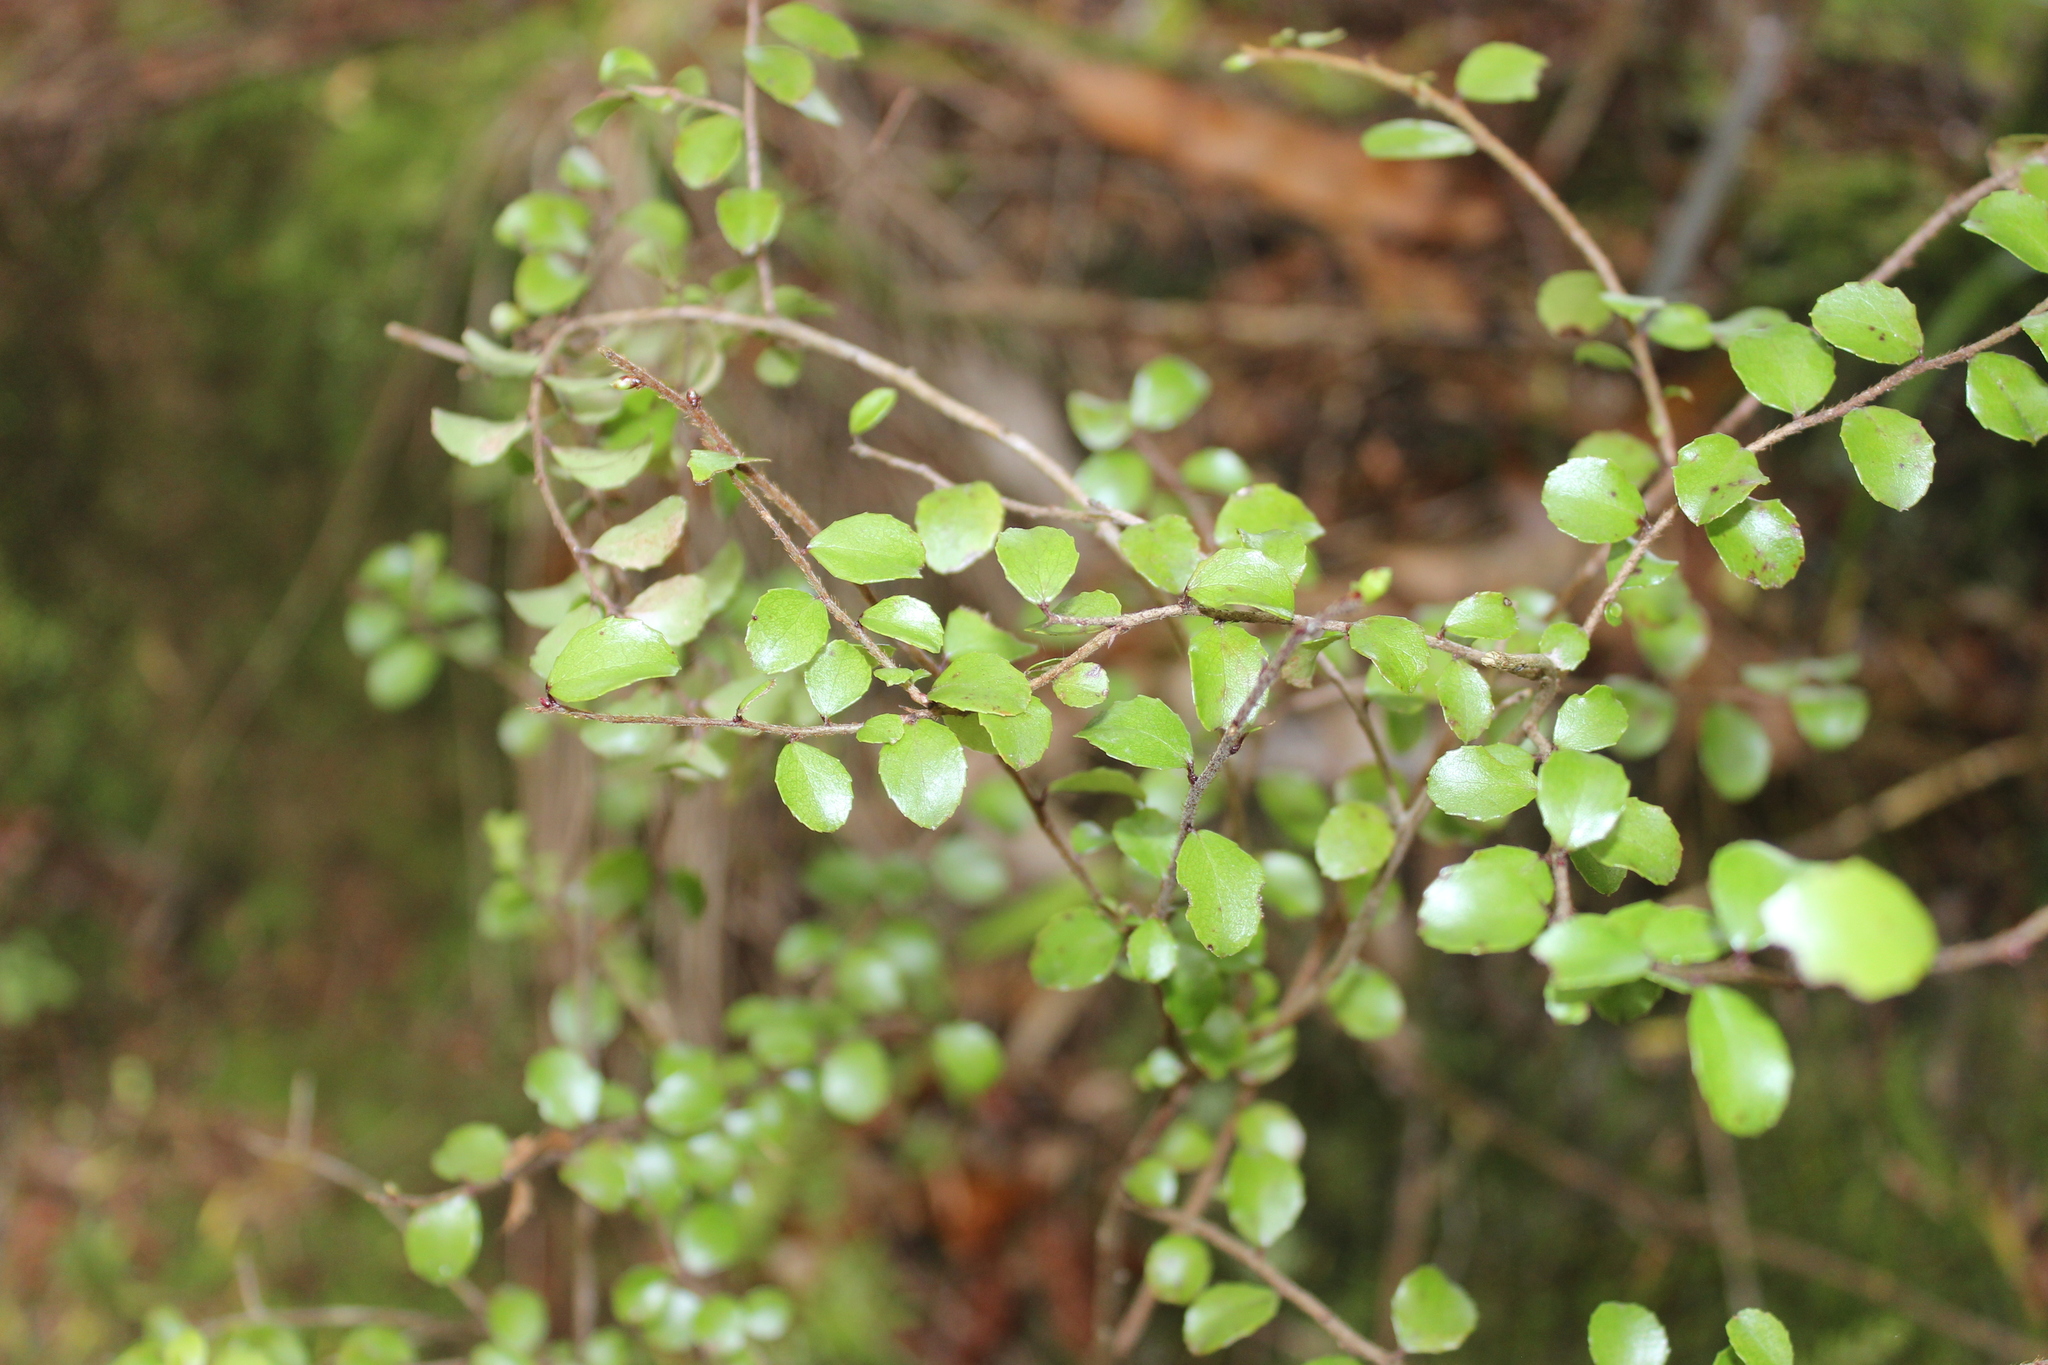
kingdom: Plantae
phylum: Tracheophyta
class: Magnoliopsida
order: Ericales
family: Ericaceae
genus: Gaultheria
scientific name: Gaultheria antipoda
